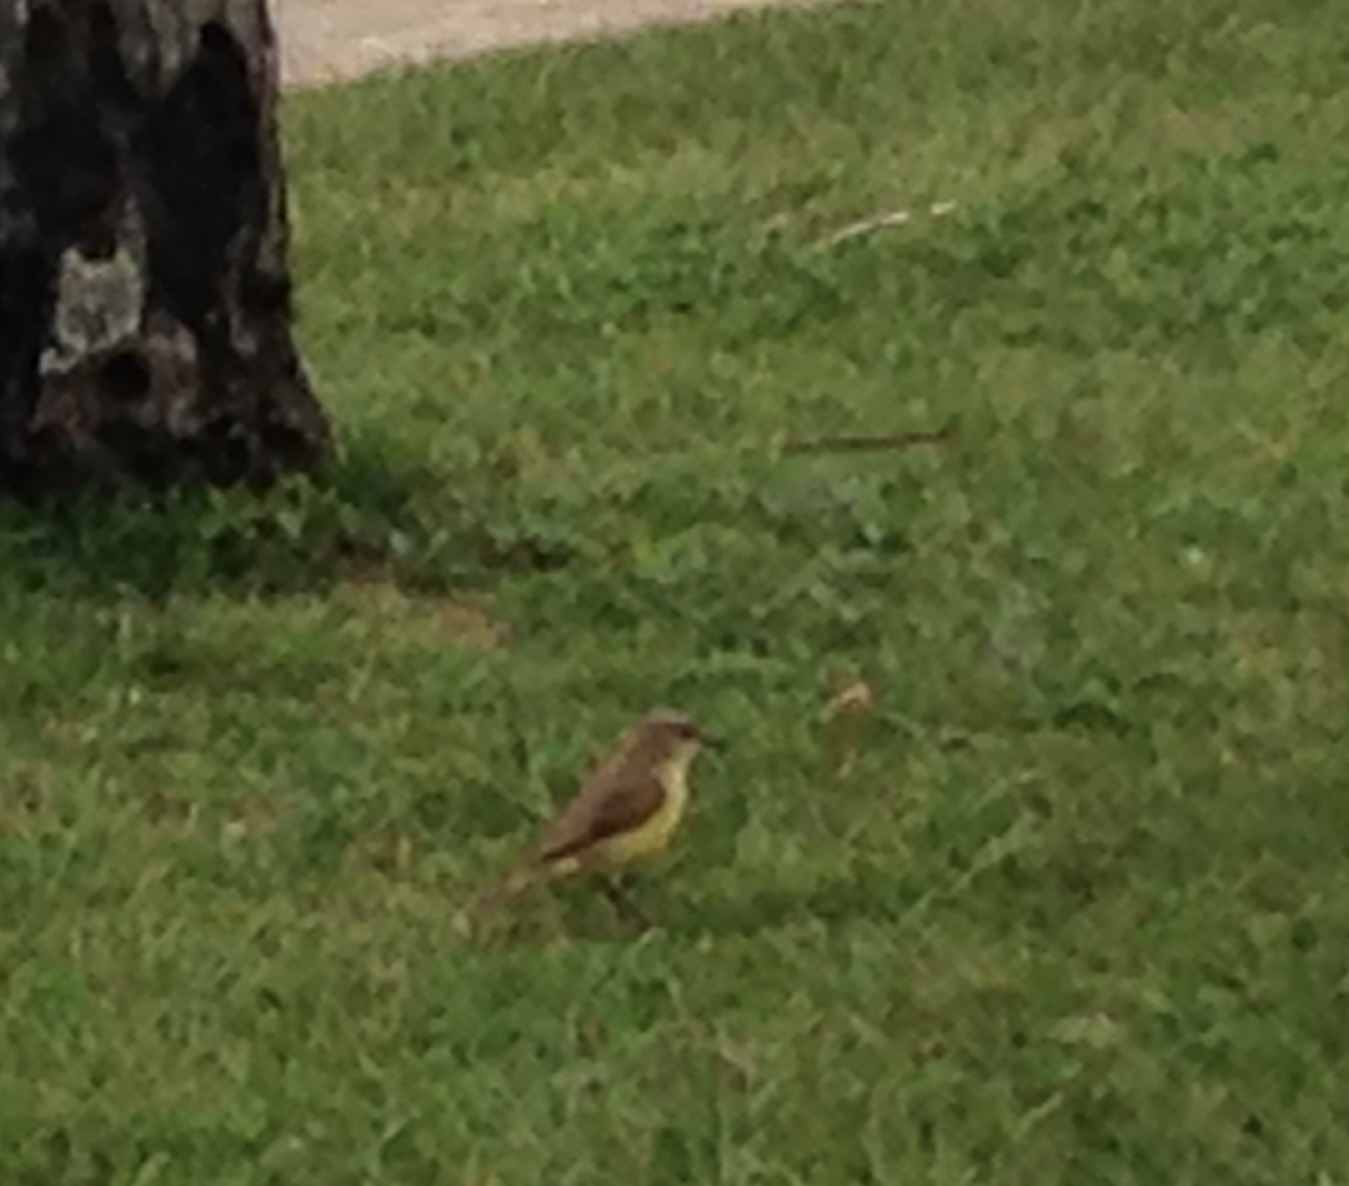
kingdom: Animalia
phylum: Chordata
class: Aves
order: Passeriformes
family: Tyrannidae
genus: Machetornis
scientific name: Machetornis rixosa
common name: Cattle tyrant
